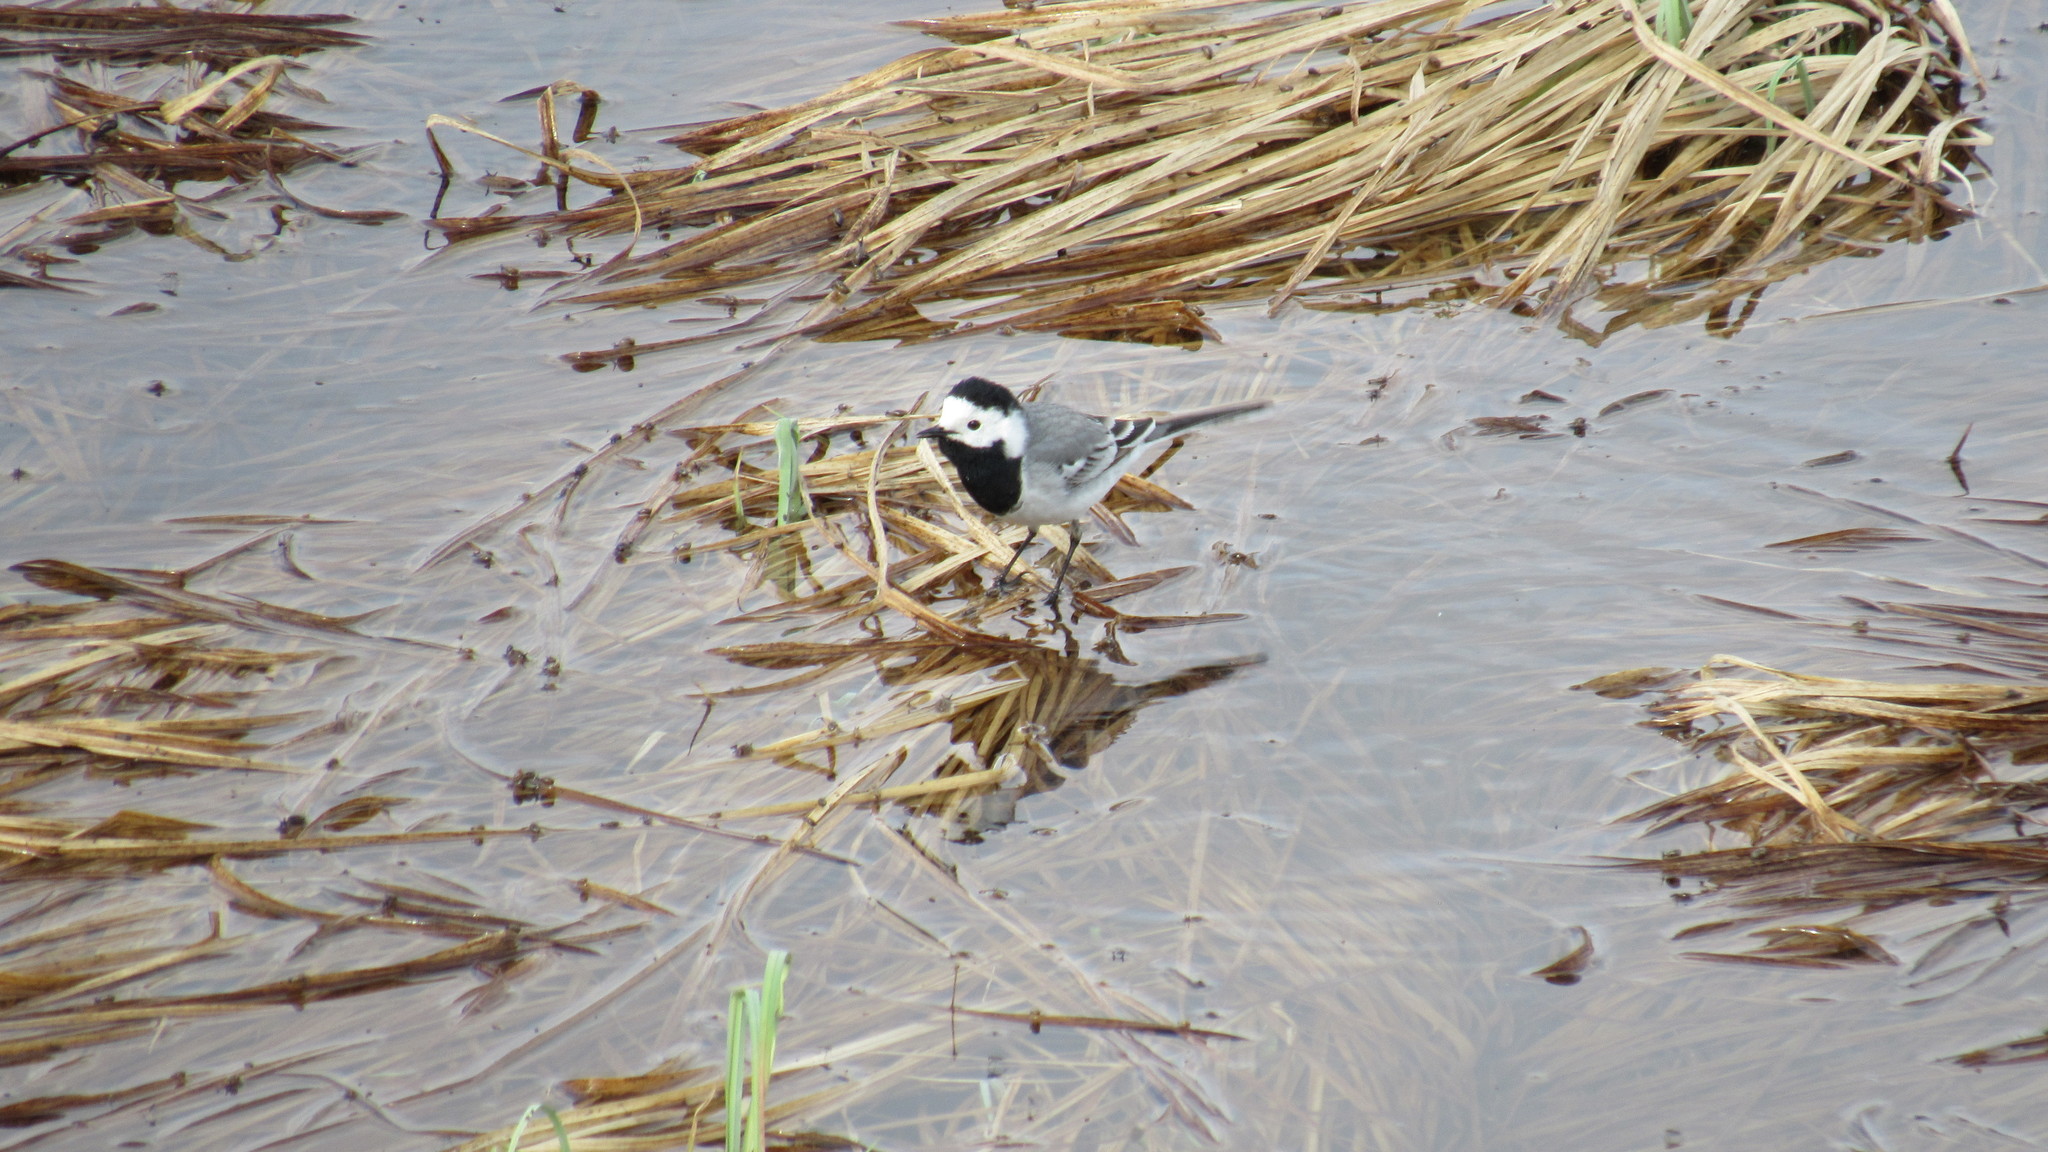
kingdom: Animalia
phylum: Chordata
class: Aves
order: Passeriformes
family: Motacillidae
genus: Motacilla
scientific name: Motacilla alba
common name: White wagtail
